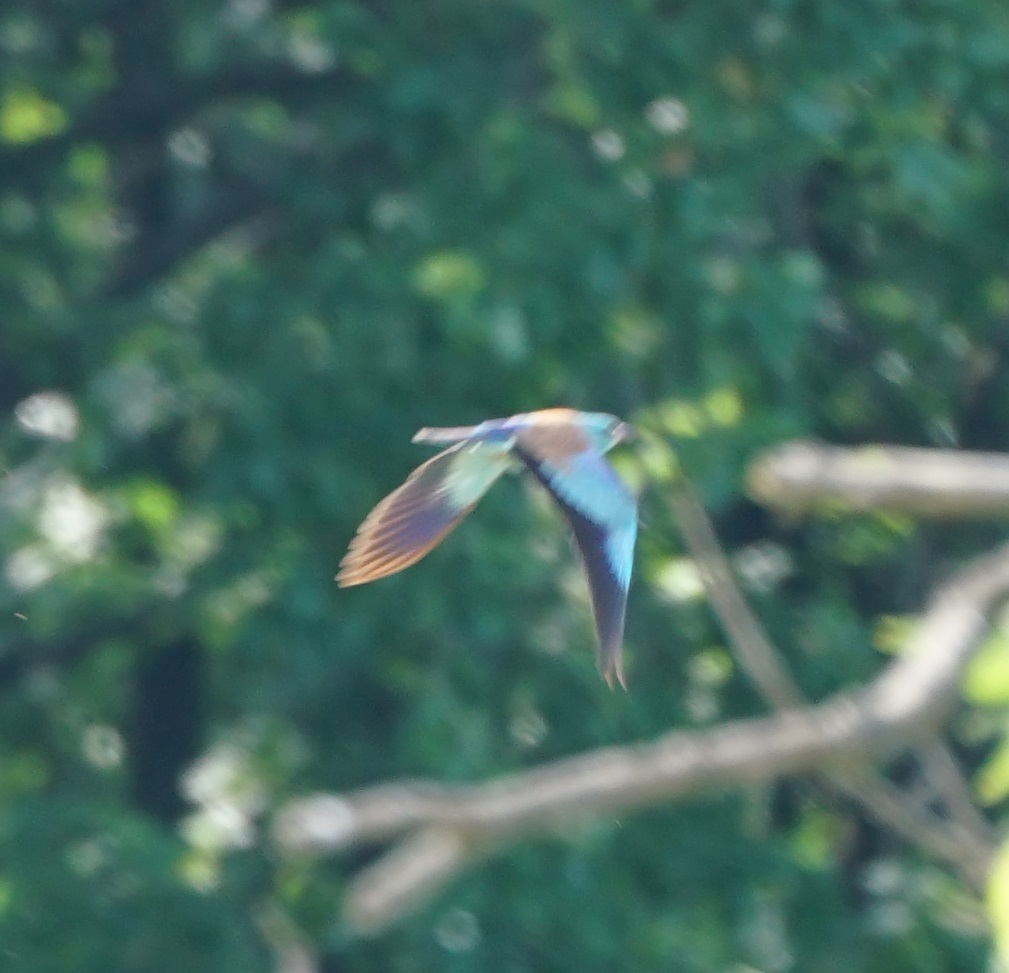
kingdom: Animalia
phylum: Chordata
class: Aves
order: Coraciiformes
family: Coraciidae
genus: Coracias
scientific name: Coracias garrulus
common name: European roller
